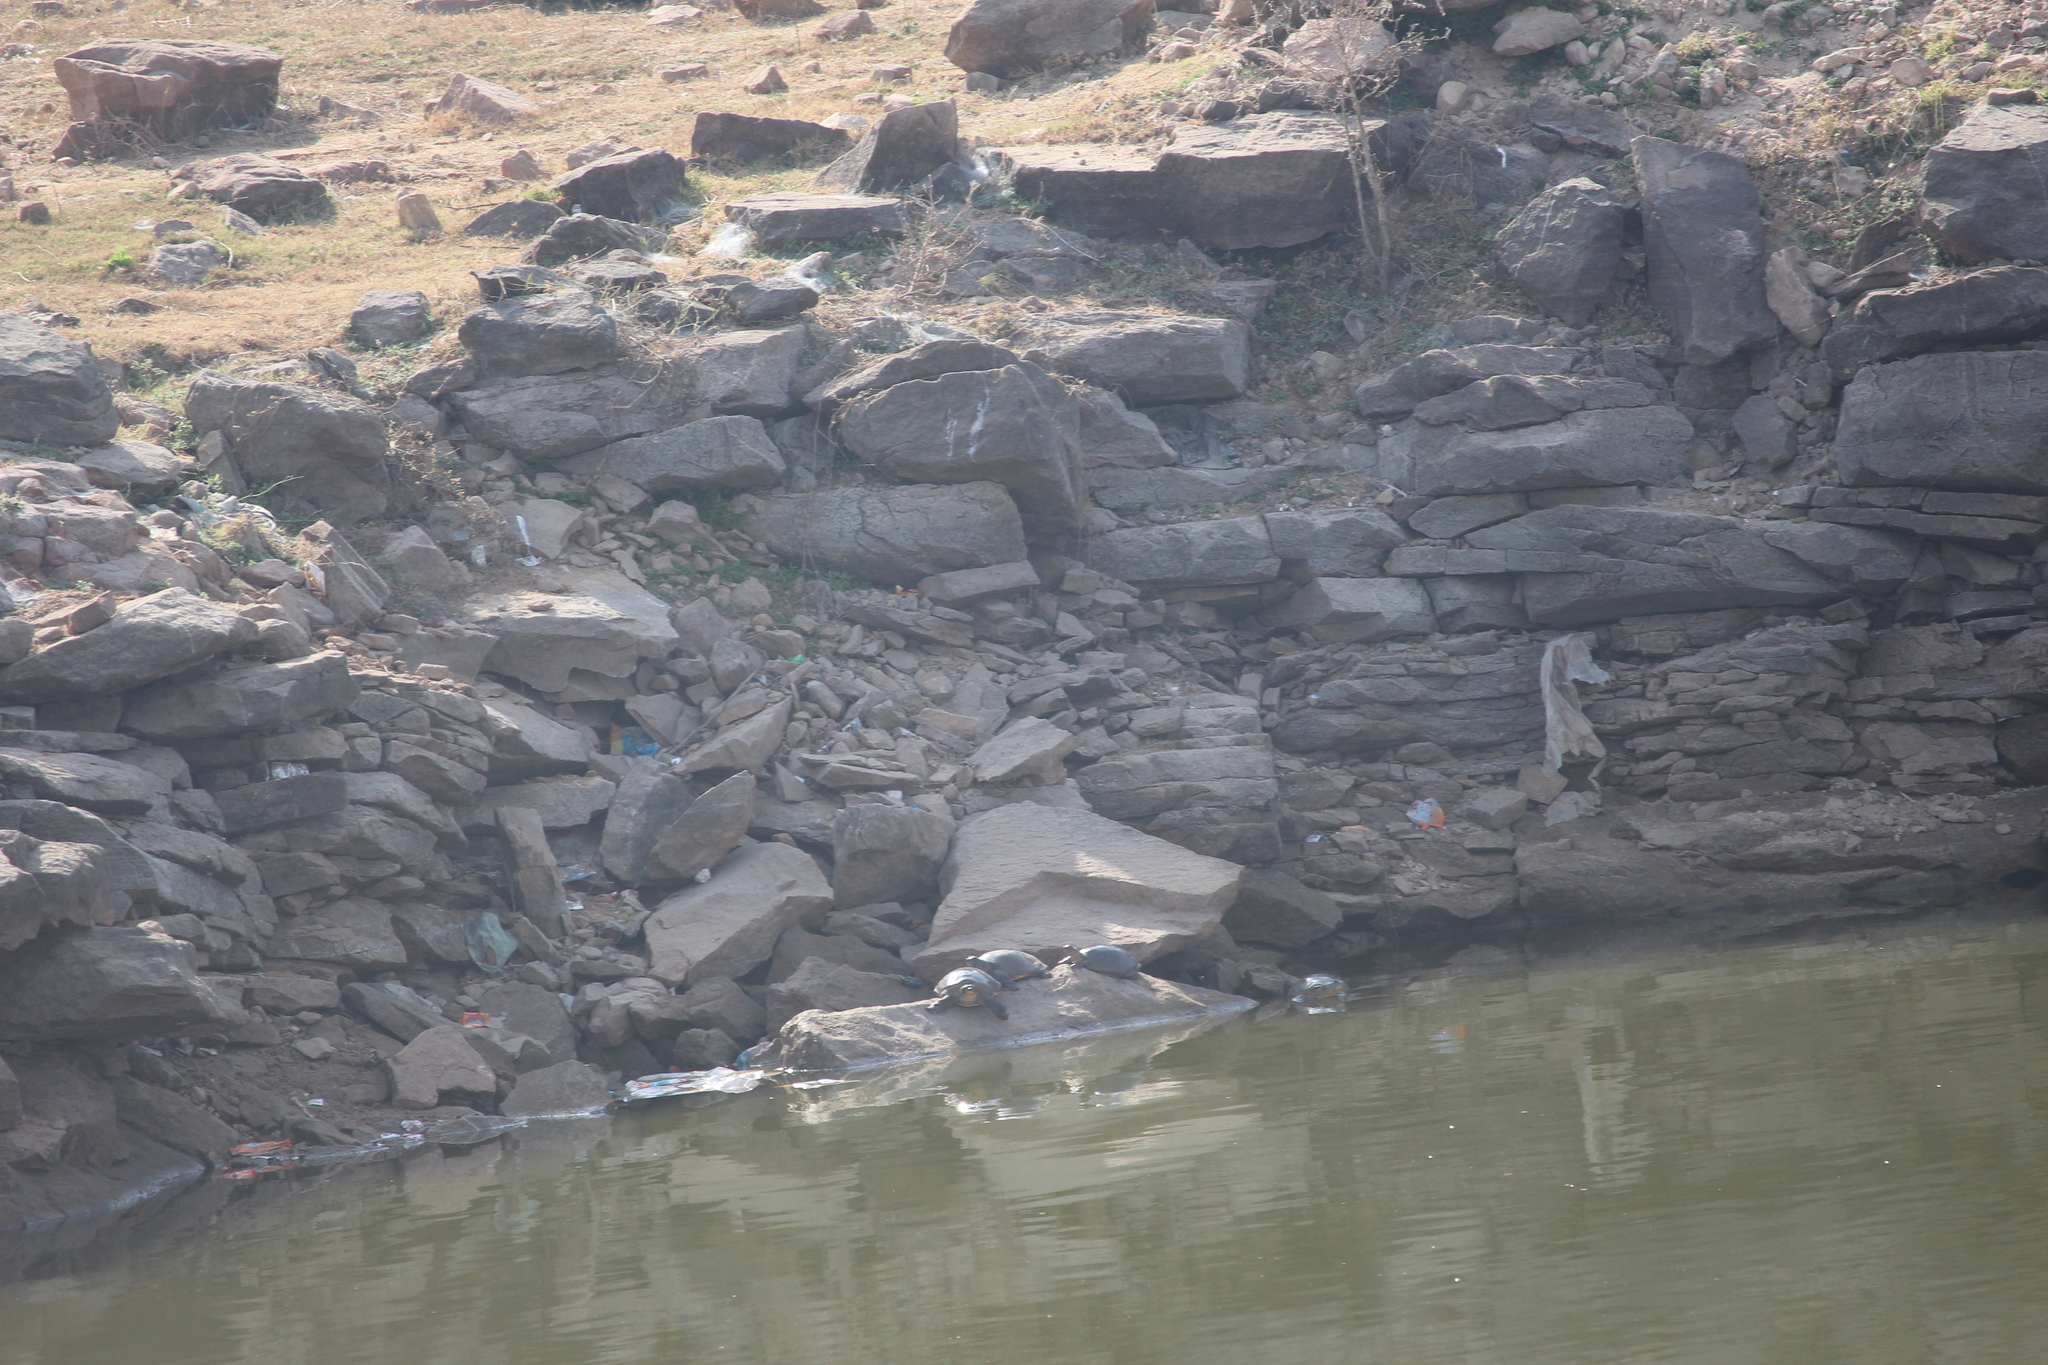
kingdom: Animalia
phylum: Chordata
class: Testudines
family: Trionychidae
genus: Lissemys
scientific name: Lissemys punctata
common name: Indian flap-shelled turtle
